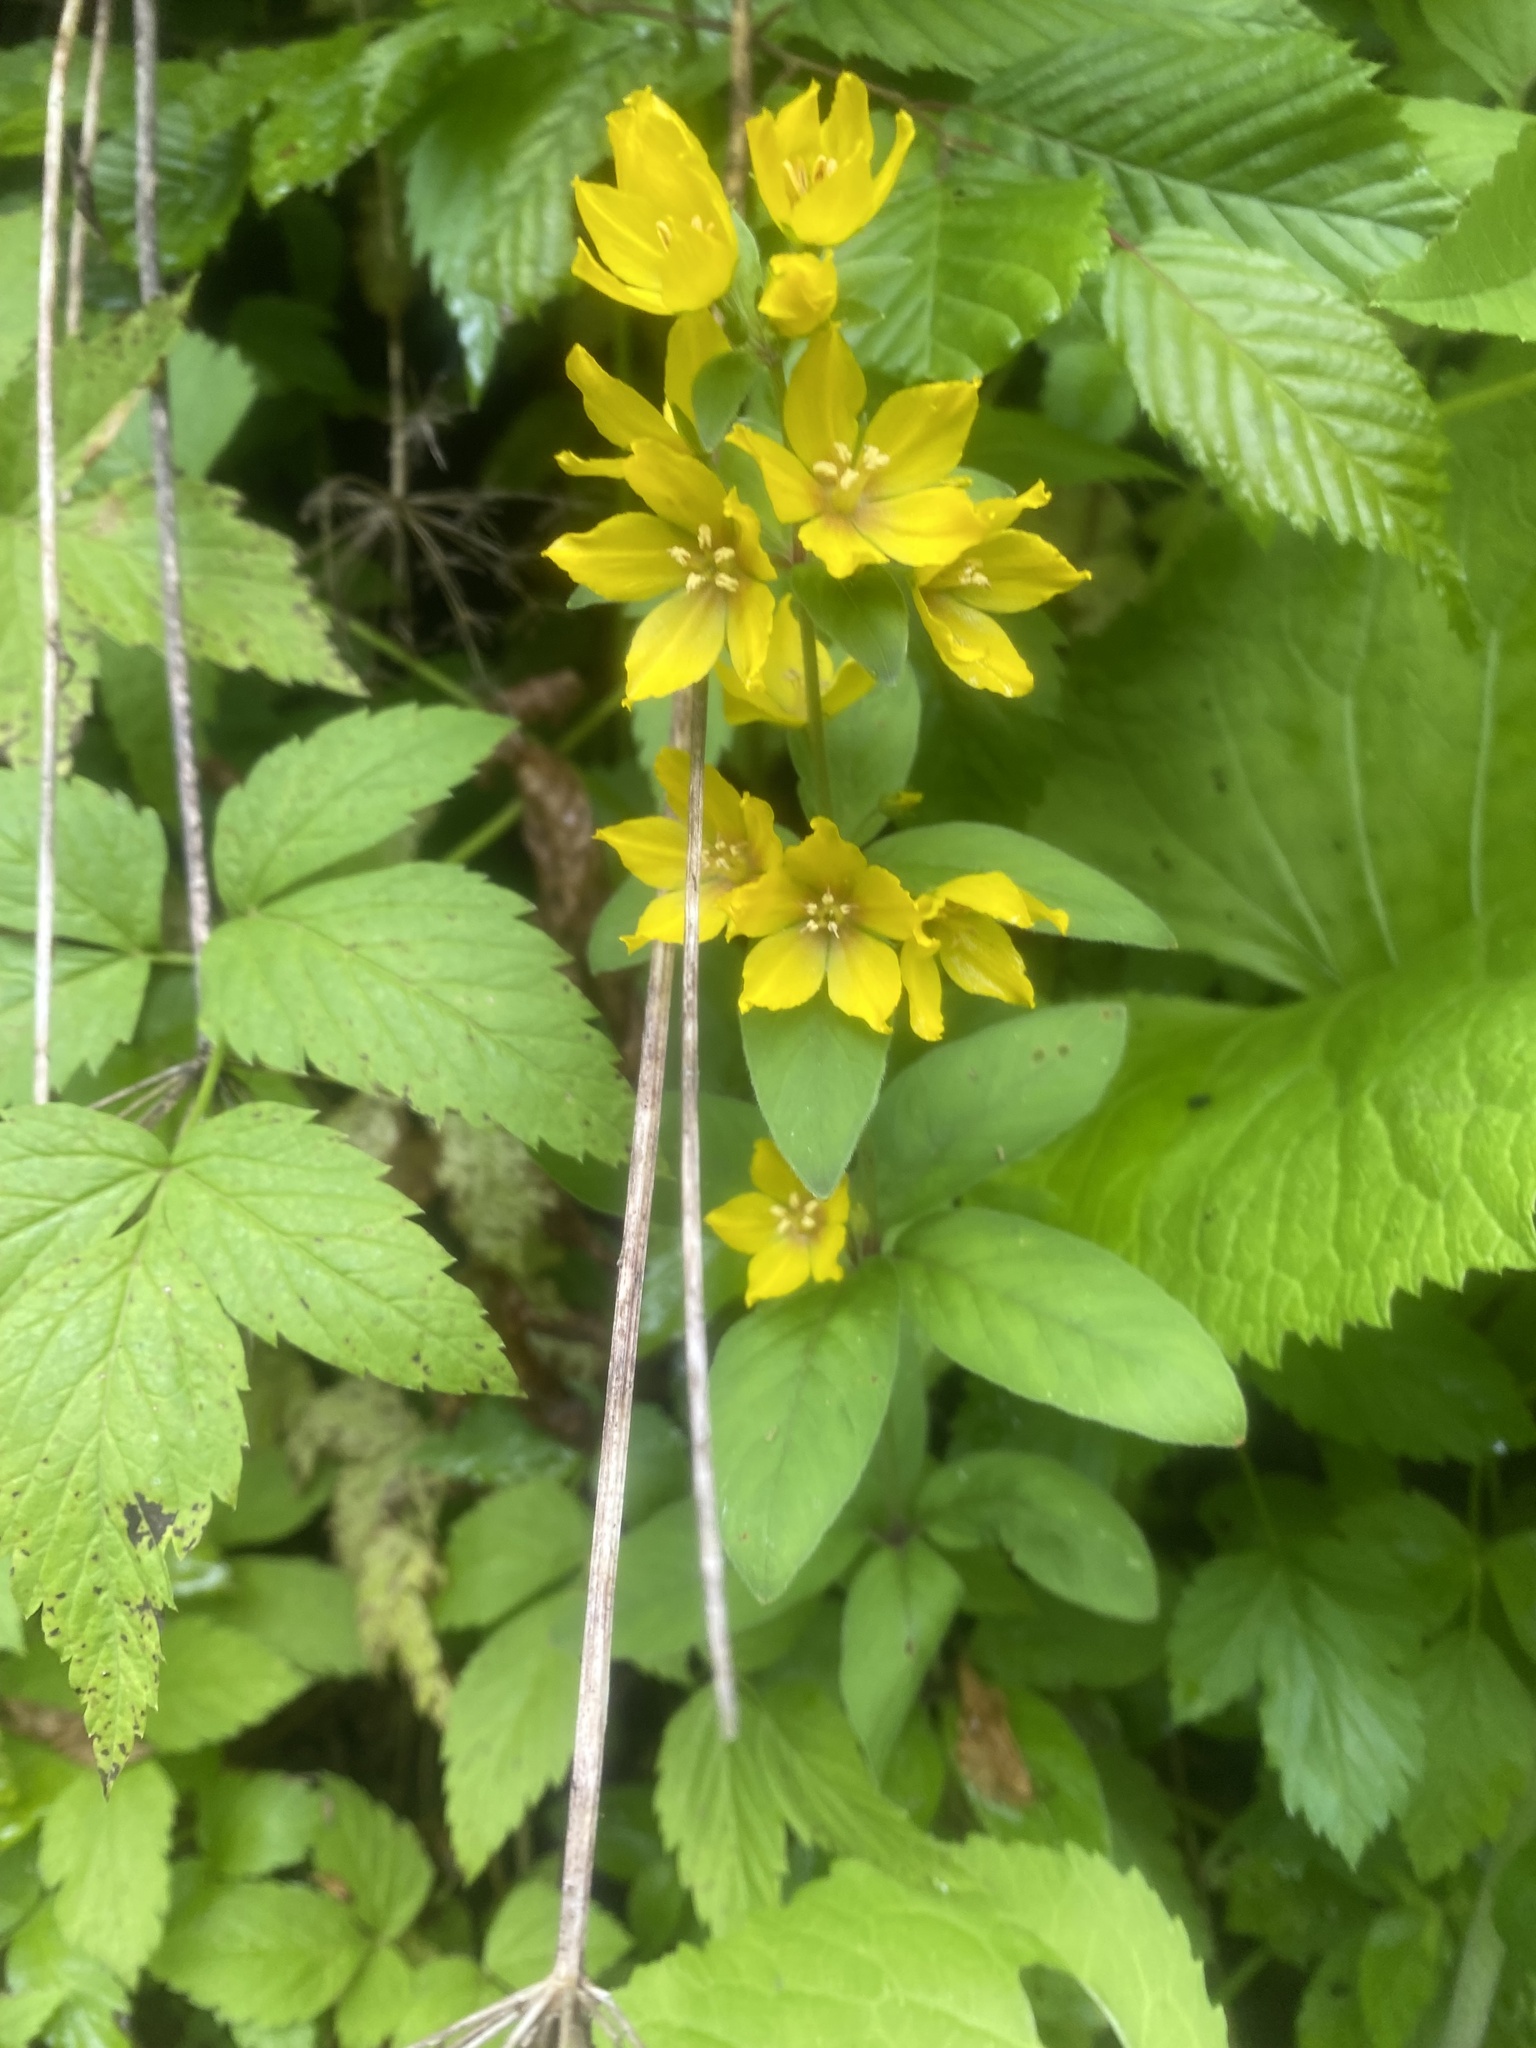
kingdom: Plantae
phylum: Tracheophyta
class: Magnoliopsida
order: Ericales
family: Primulaceae
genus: Lysimachia
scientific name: Lysimachia verticillaris
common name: Yellow loosestrife
